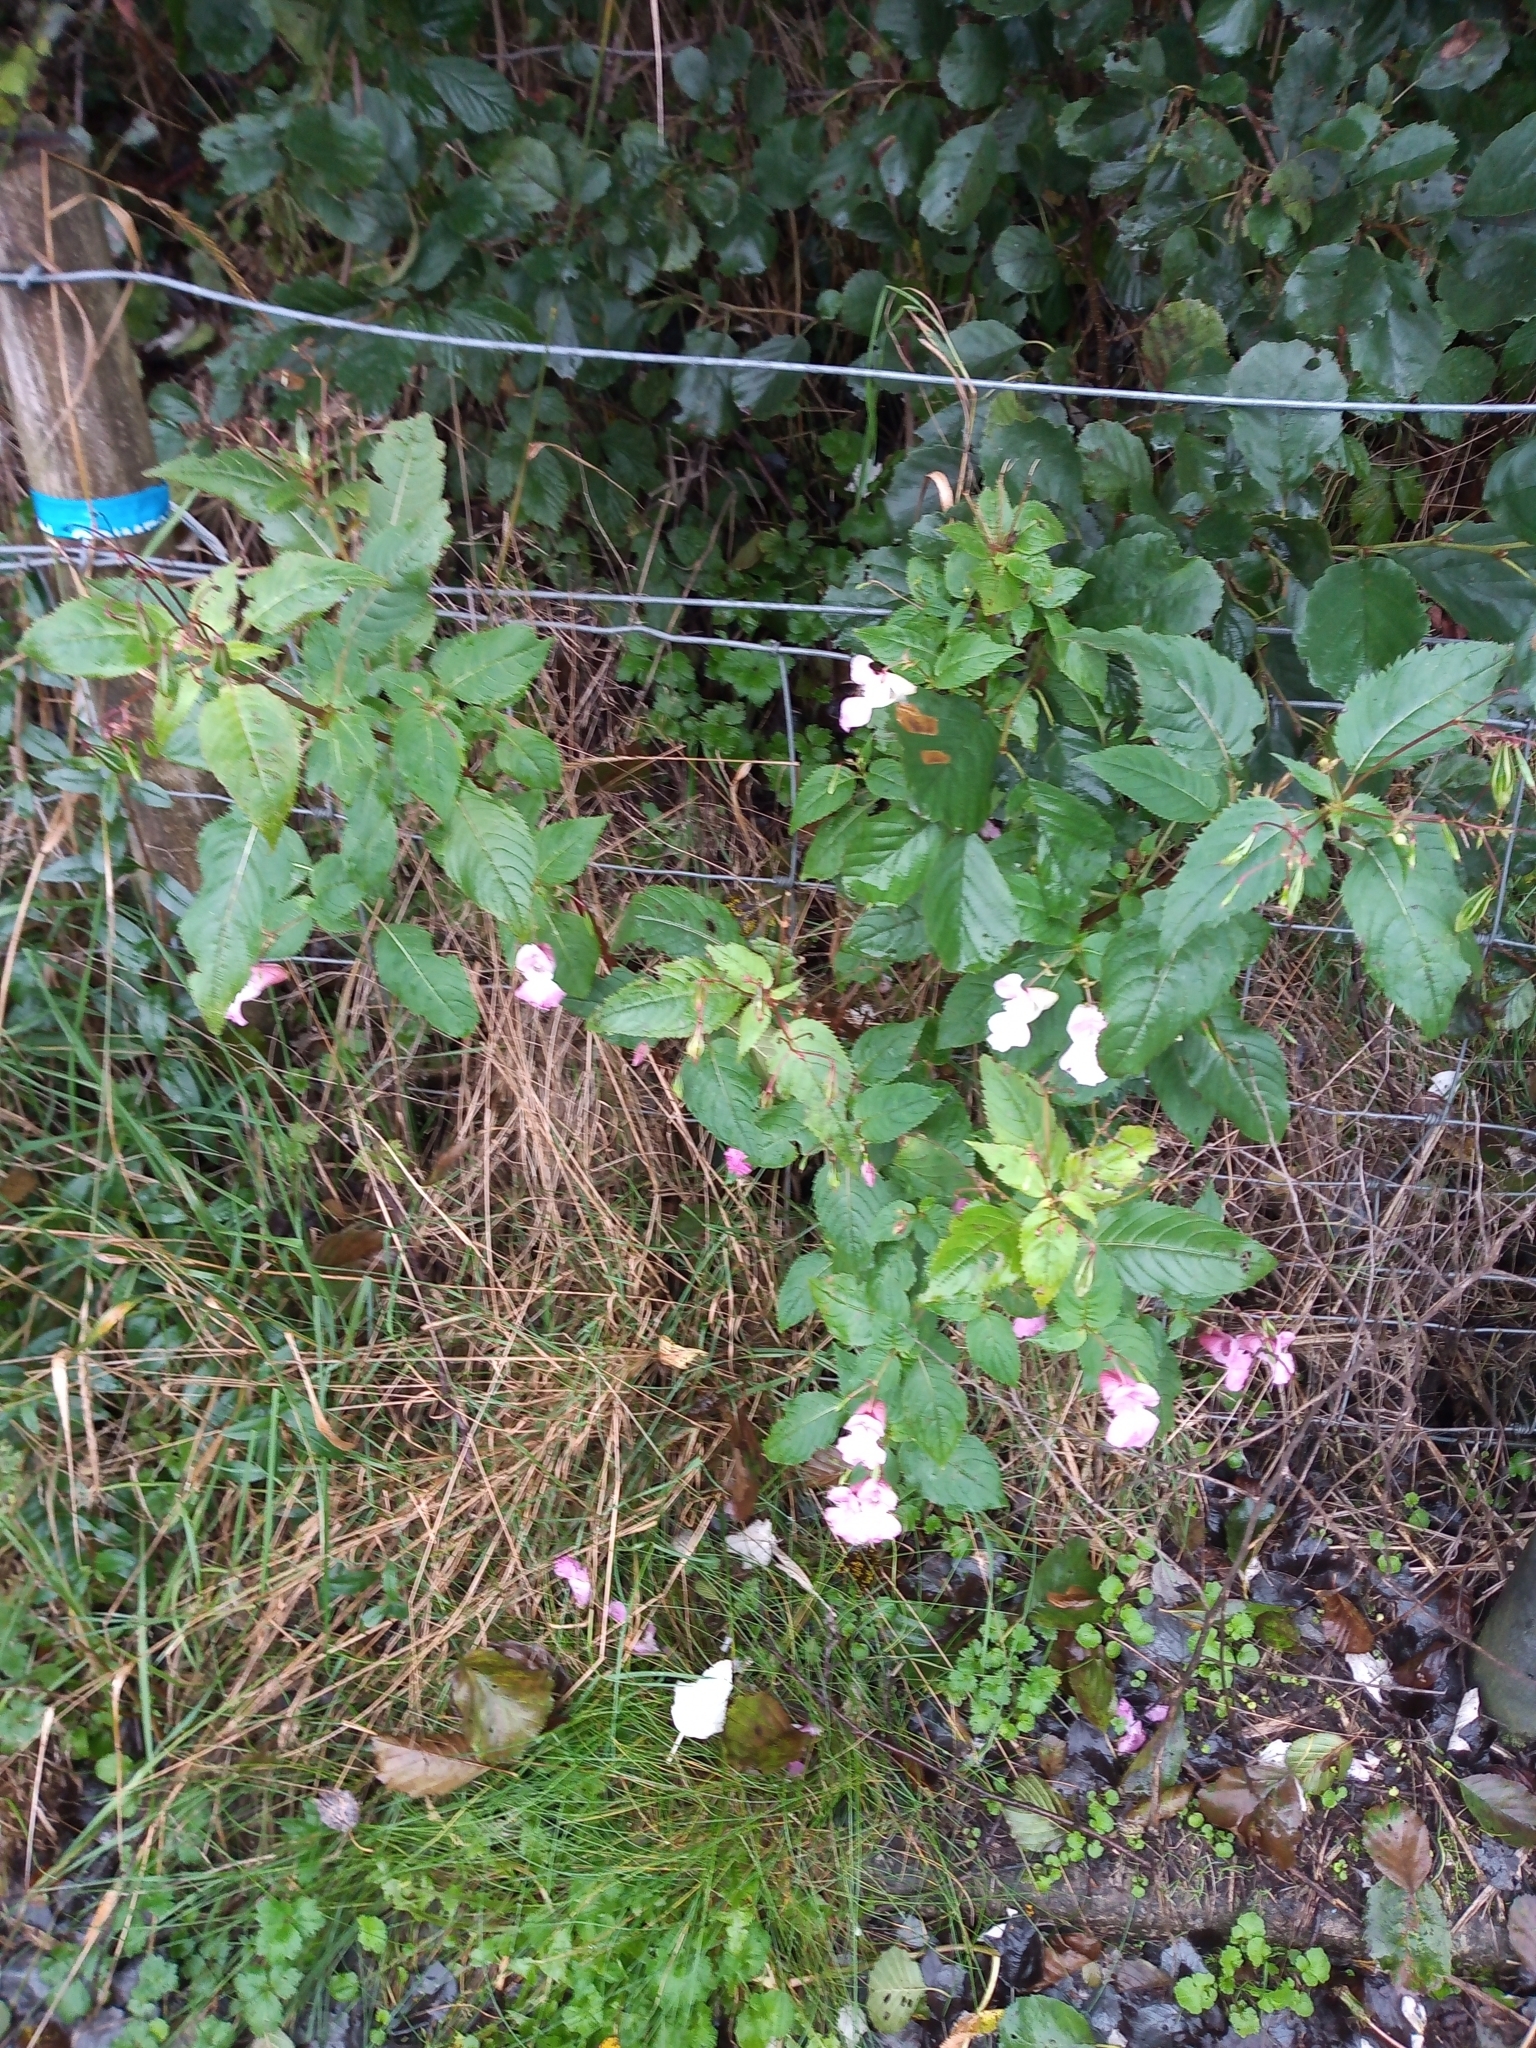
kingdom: Plantae
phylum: Tracheophyta
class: Magnoliopsida
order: Ericales
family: Balsaminaceae
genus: Impatiens
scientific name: Impatiens glandulifera
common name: Himalayan balsam
